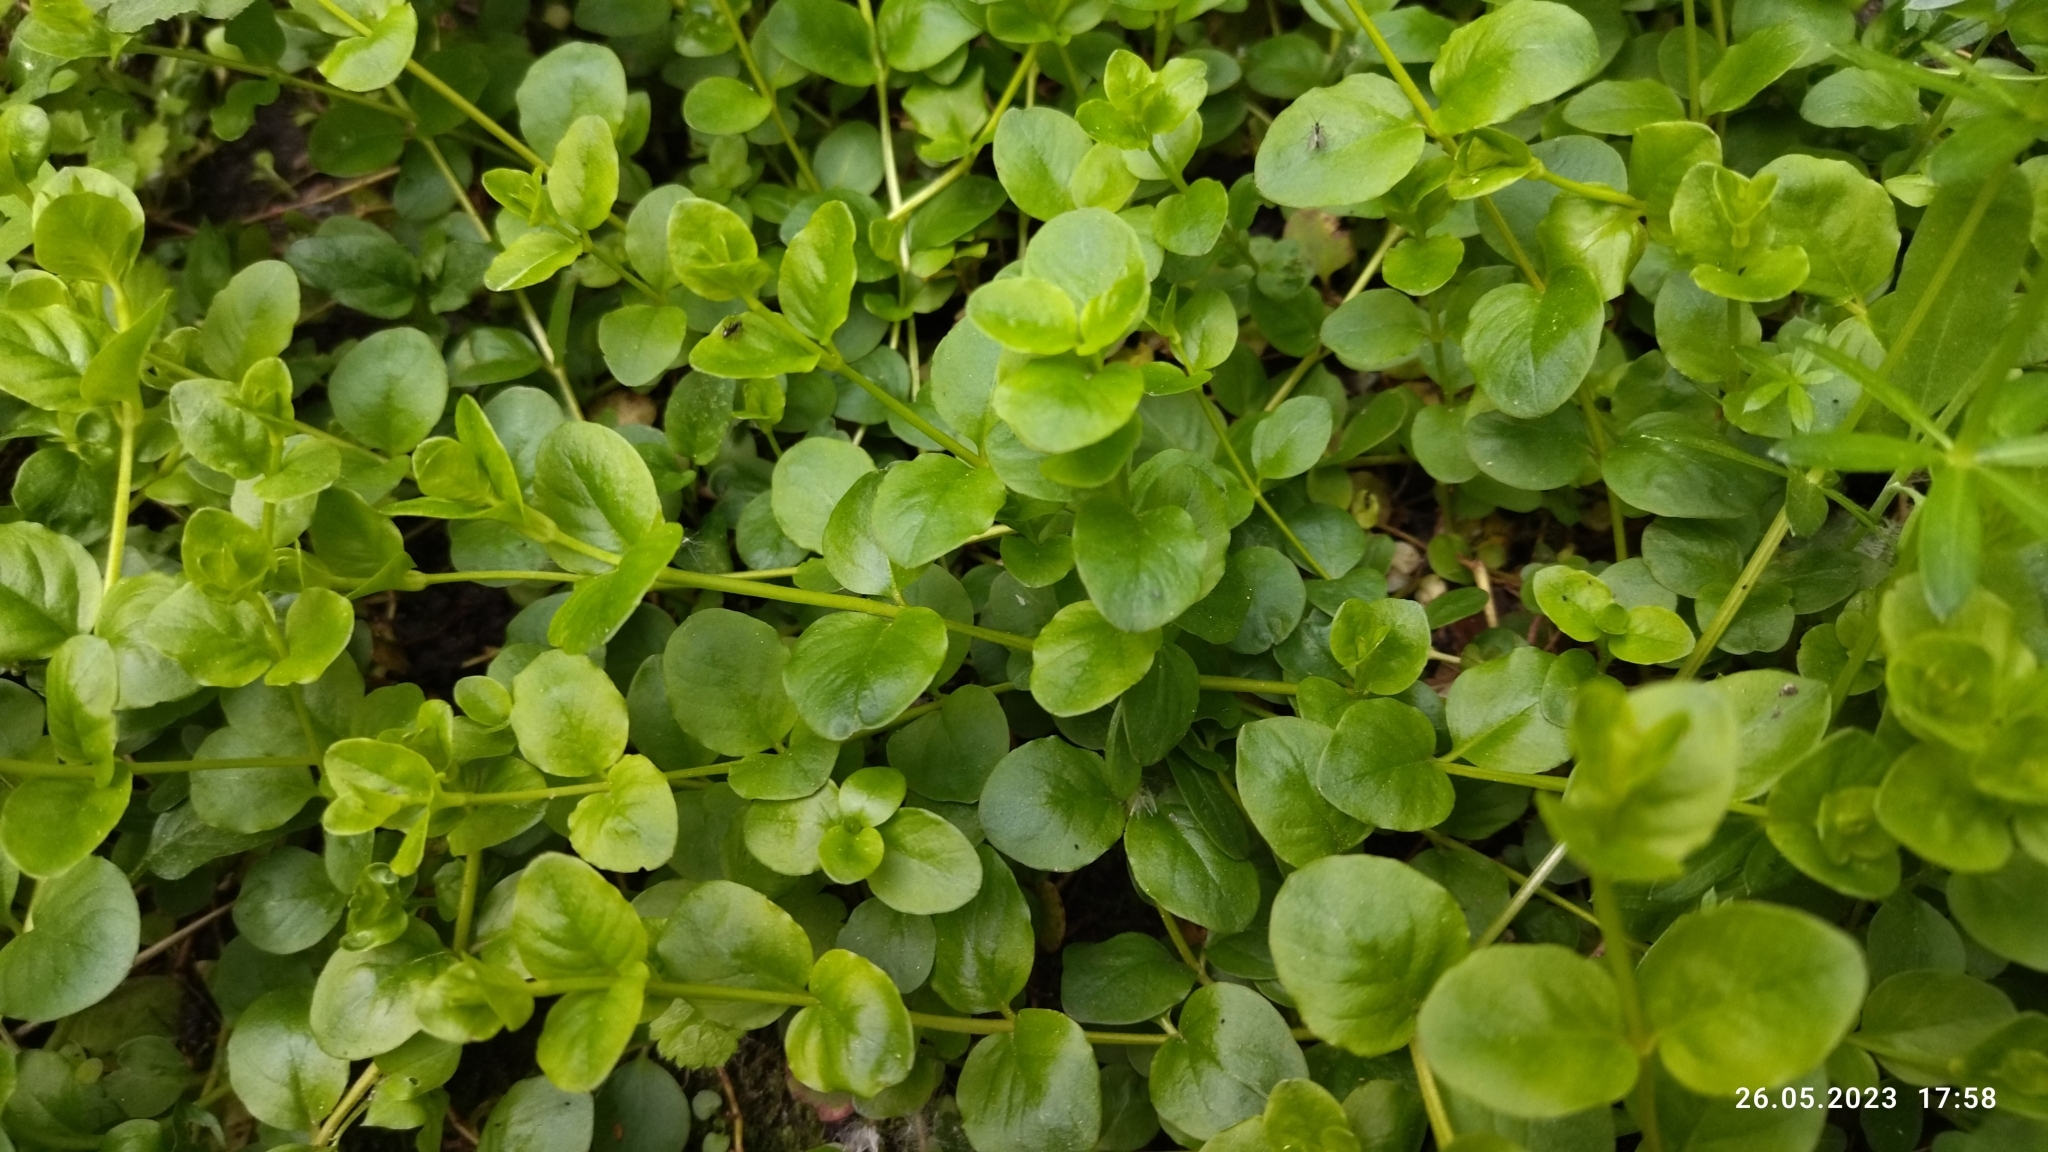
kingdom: Plantae
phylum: Tracheophyta
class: Magnoliopsida
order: Ericales
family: Primulaceae
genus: Lysimachia
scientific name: Lysimachia nummularia
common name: Moneywort
